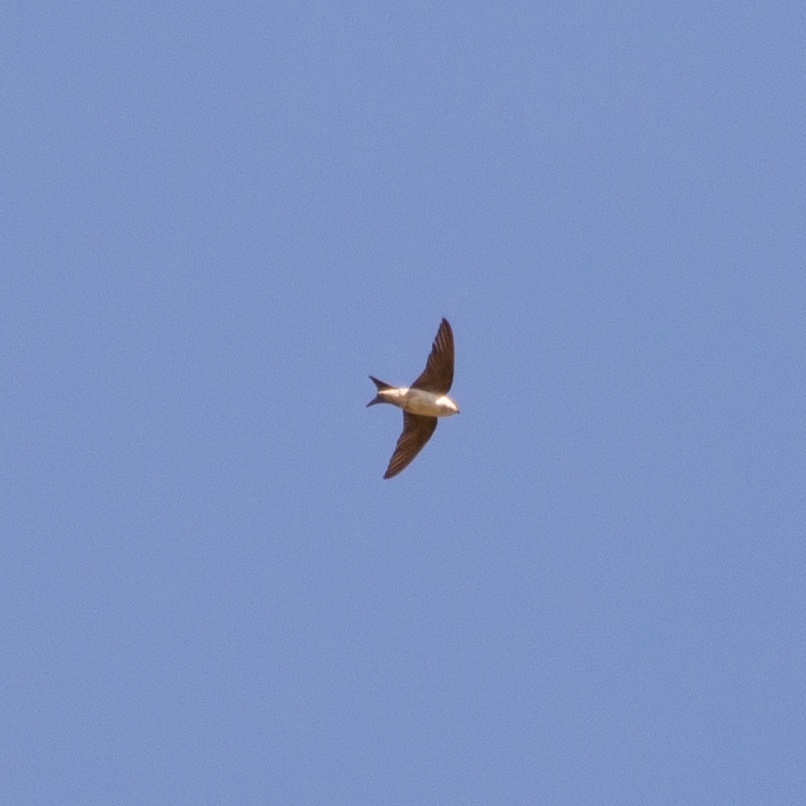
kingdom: Animalia
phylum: Chordata
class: Aves
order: Passeriformes
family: Hirundinidae
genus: Delichon
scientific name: Delichon urbicum
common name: Common house martin
